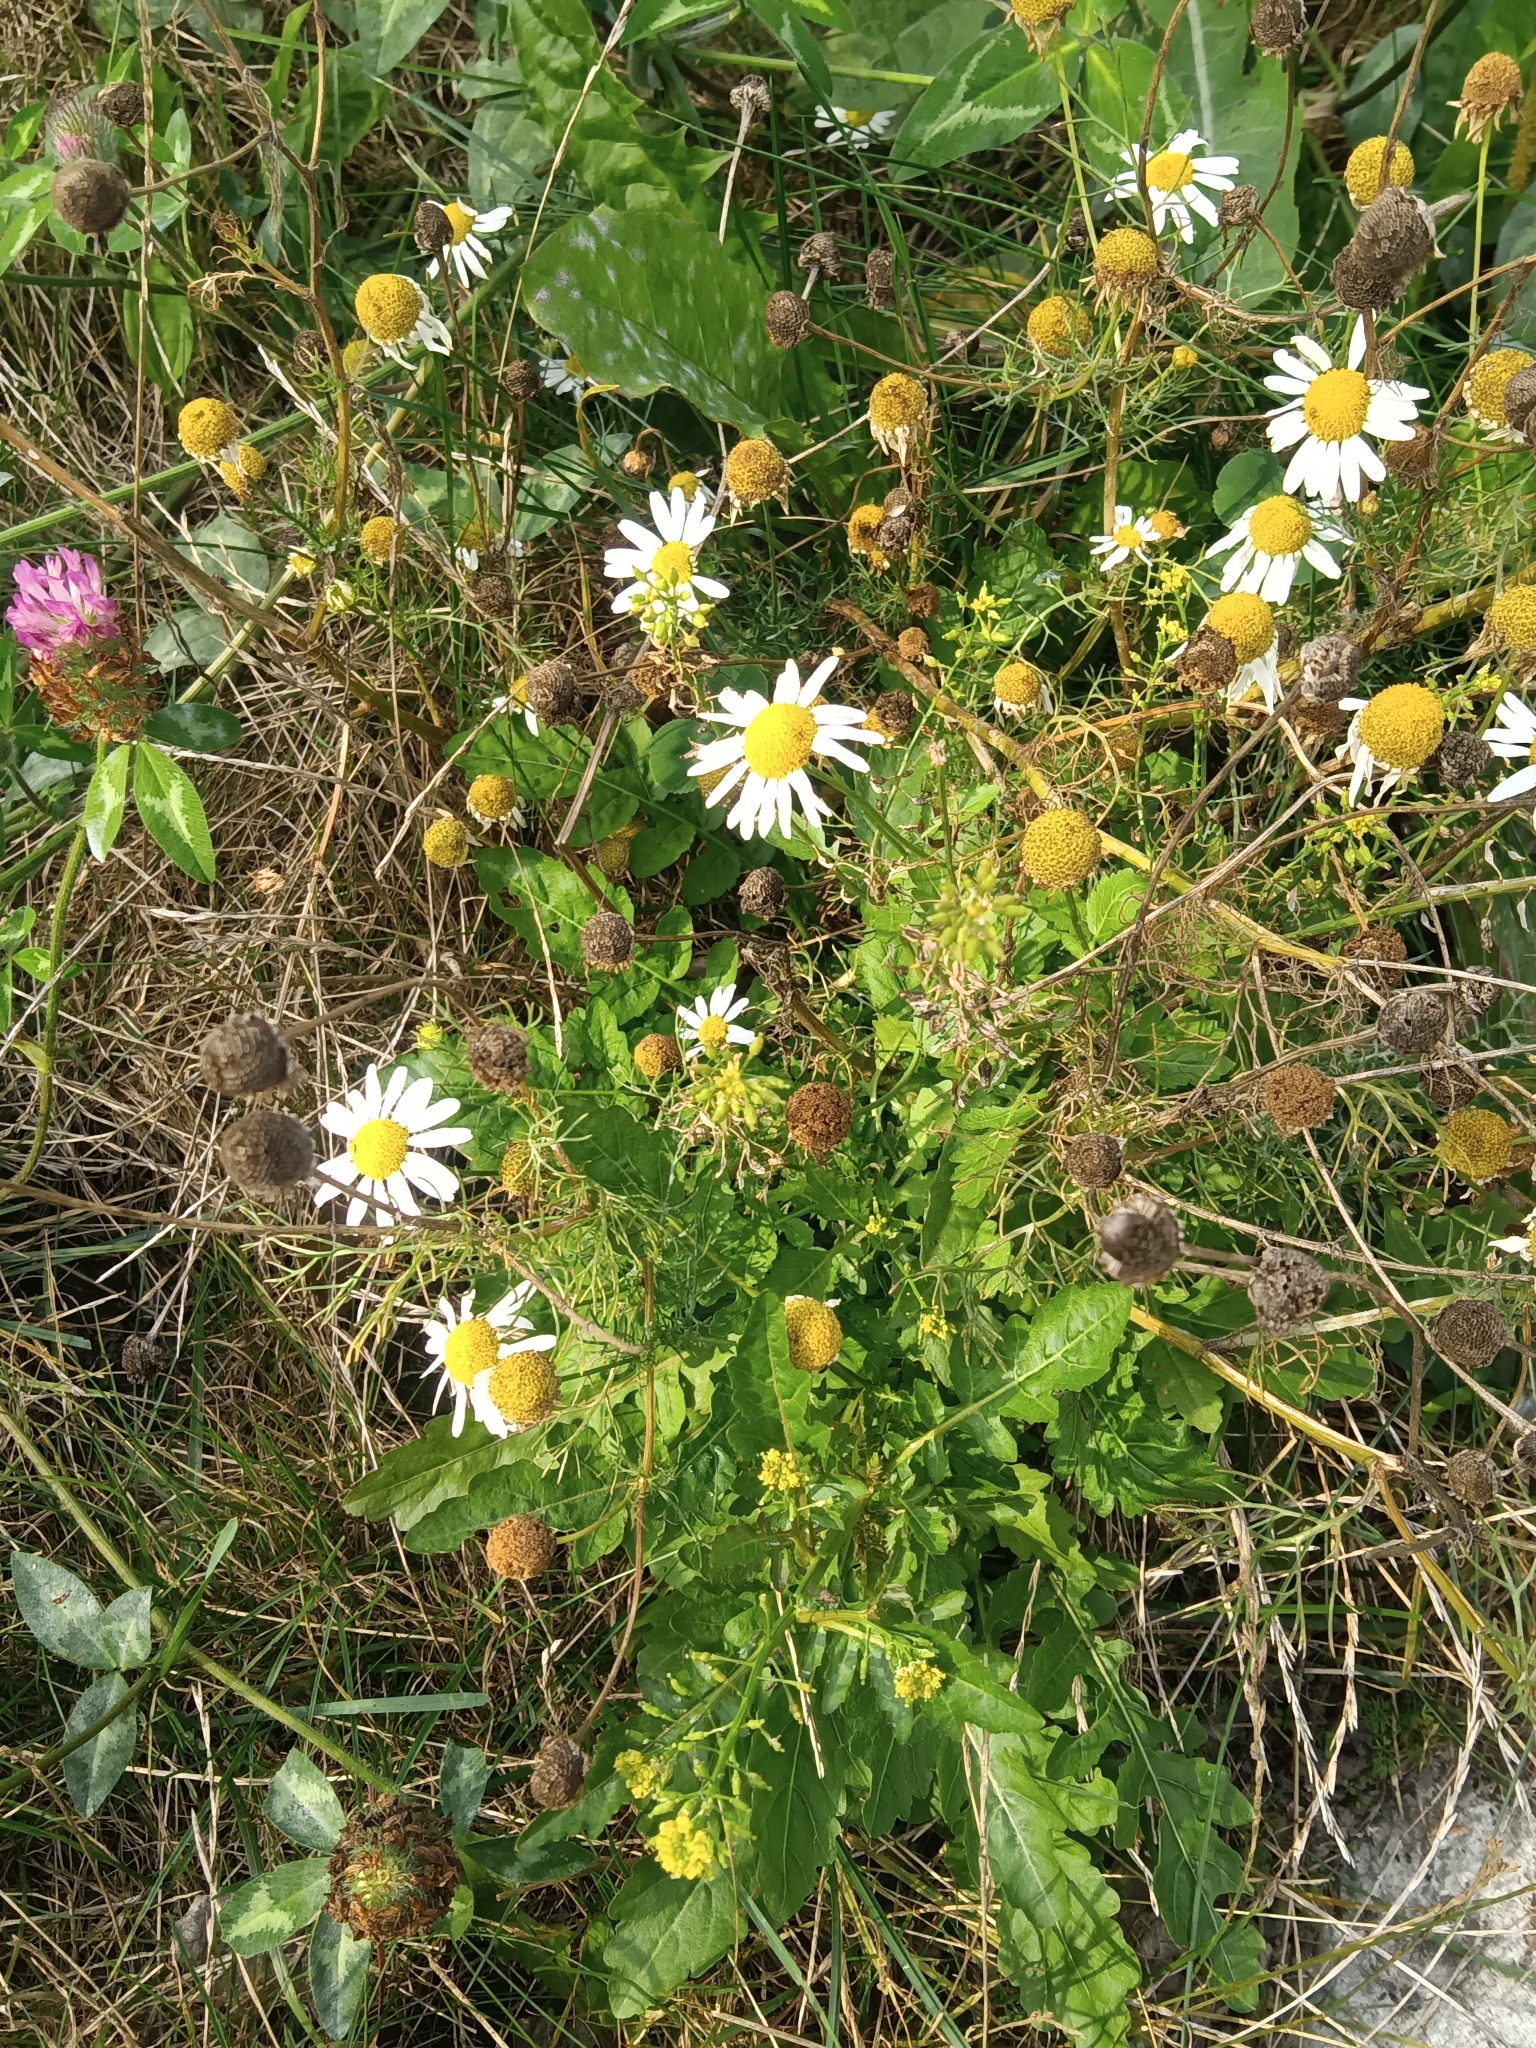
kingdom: Plantae
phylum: Tracheophyta
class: Magnoliopsida
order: Asterales
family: Asteraceae
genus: Tripleurospermum
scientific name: Tripleurospermum inodorum
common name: Scentless mayweed
